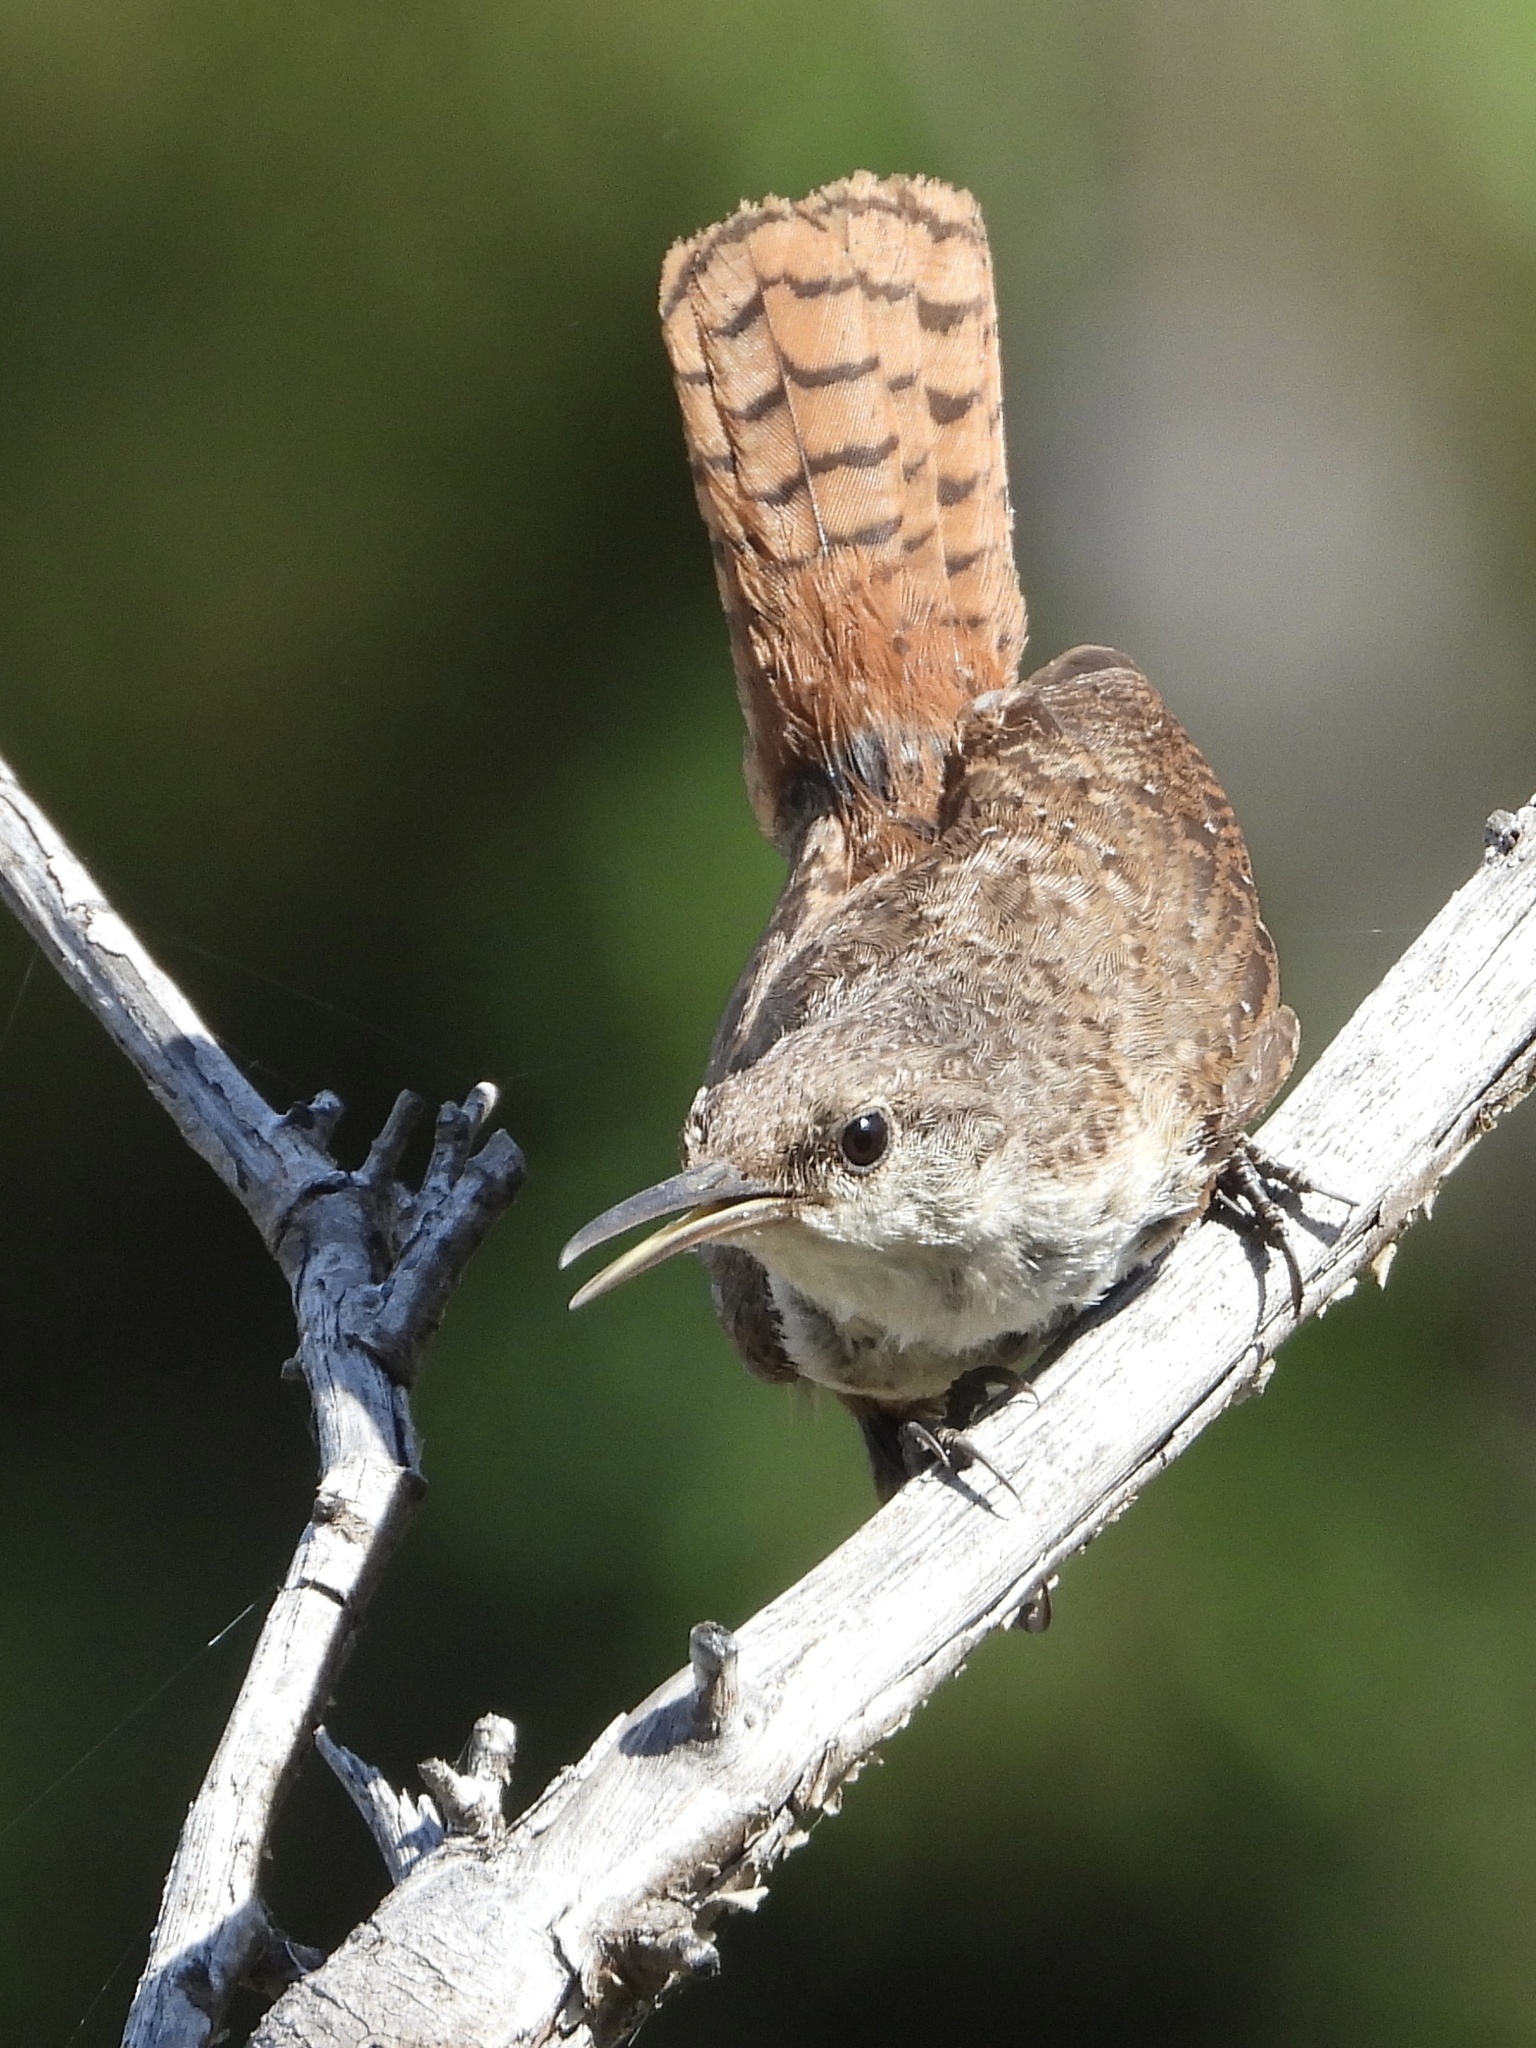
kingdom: Animalia
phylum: Chordata
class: Aves
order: Passeriformes
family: Troglodytidae
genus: Catherpes
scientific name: Catherpes mexicanus
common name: Canyon wren
